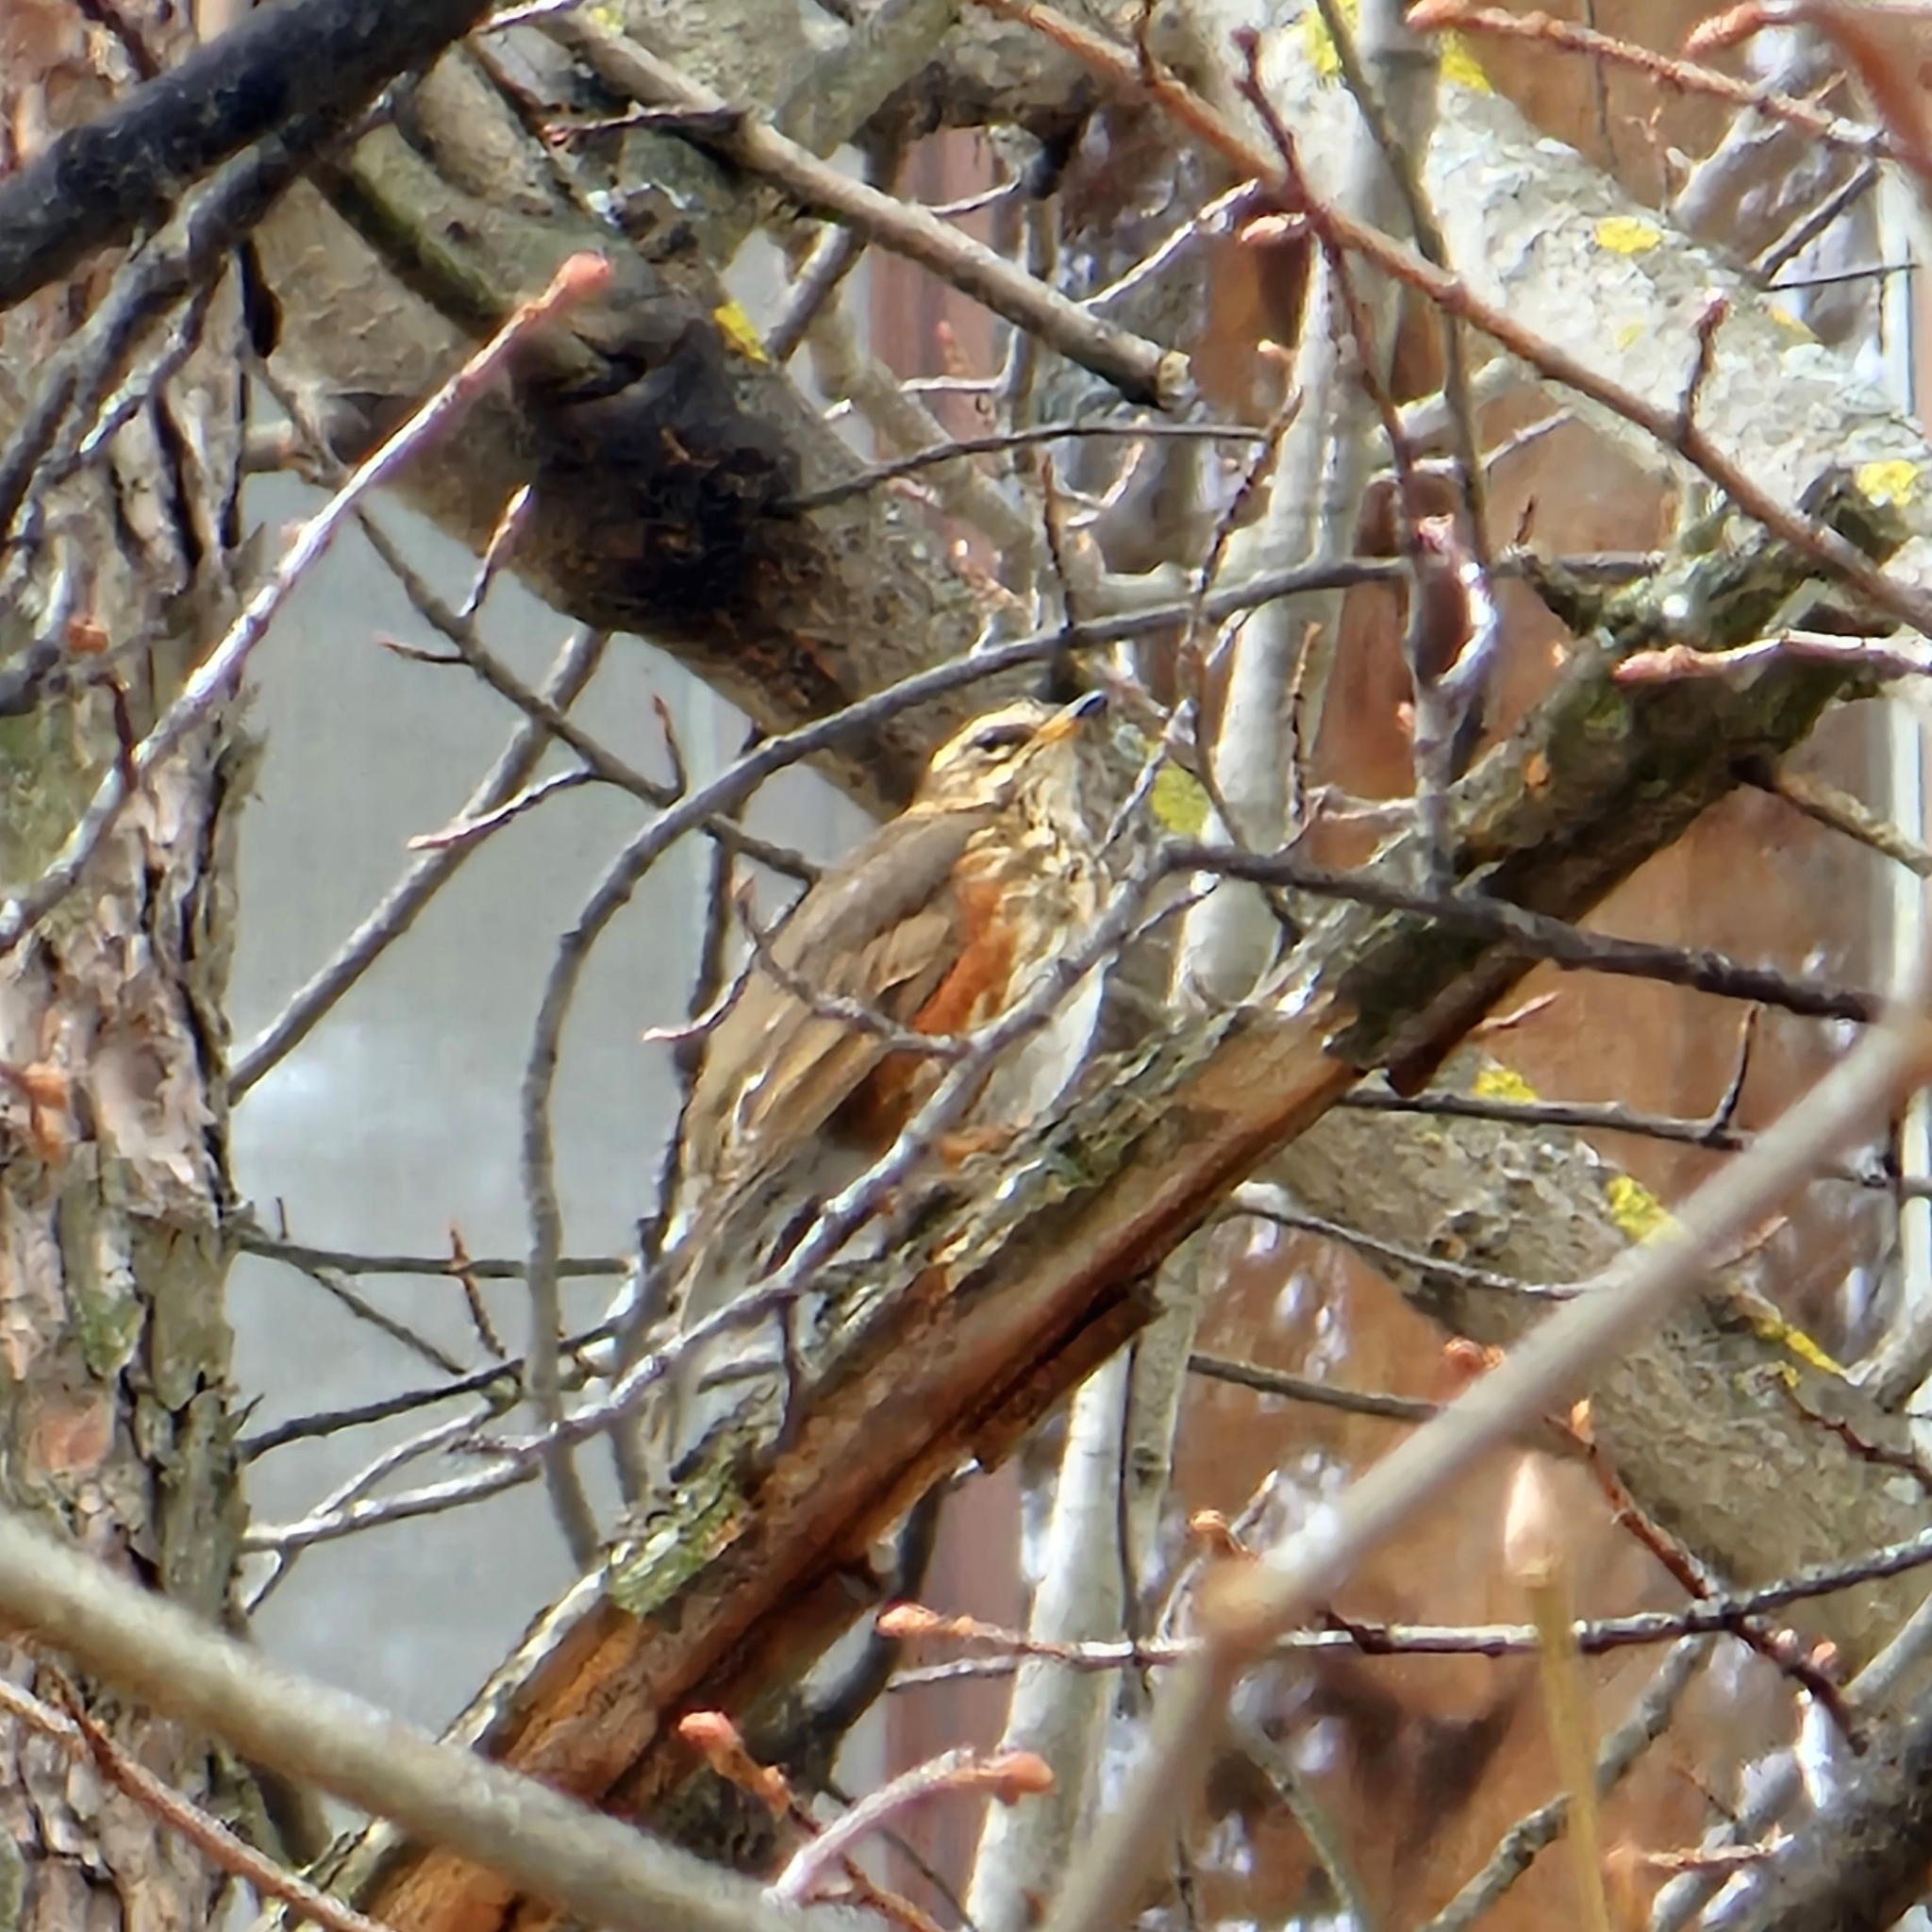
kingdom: Animalia
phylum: Chordata
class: Aves
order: Passeriformes
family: Turdidae
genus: Turdus
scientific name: Turdus iliacus
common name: Redwing
